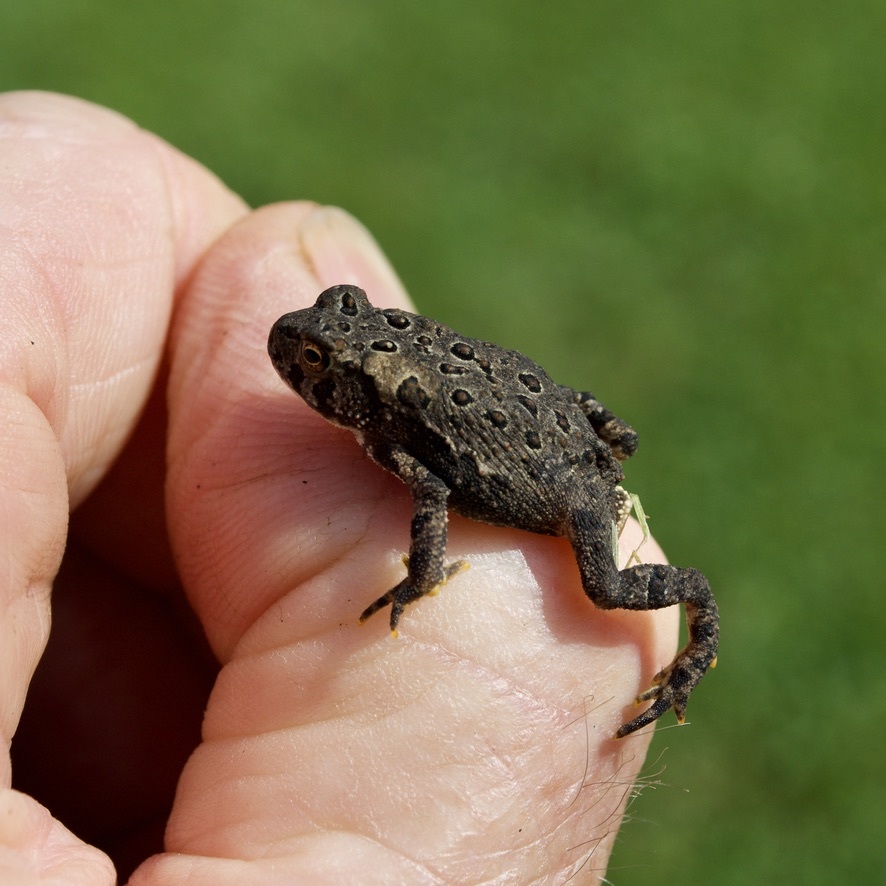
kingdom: Animalia
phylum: Chordata
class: Amphibia
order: Anura
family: Bufonidae
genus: Anaxyrus
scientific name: Anaxyrus americanus
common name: American toad
